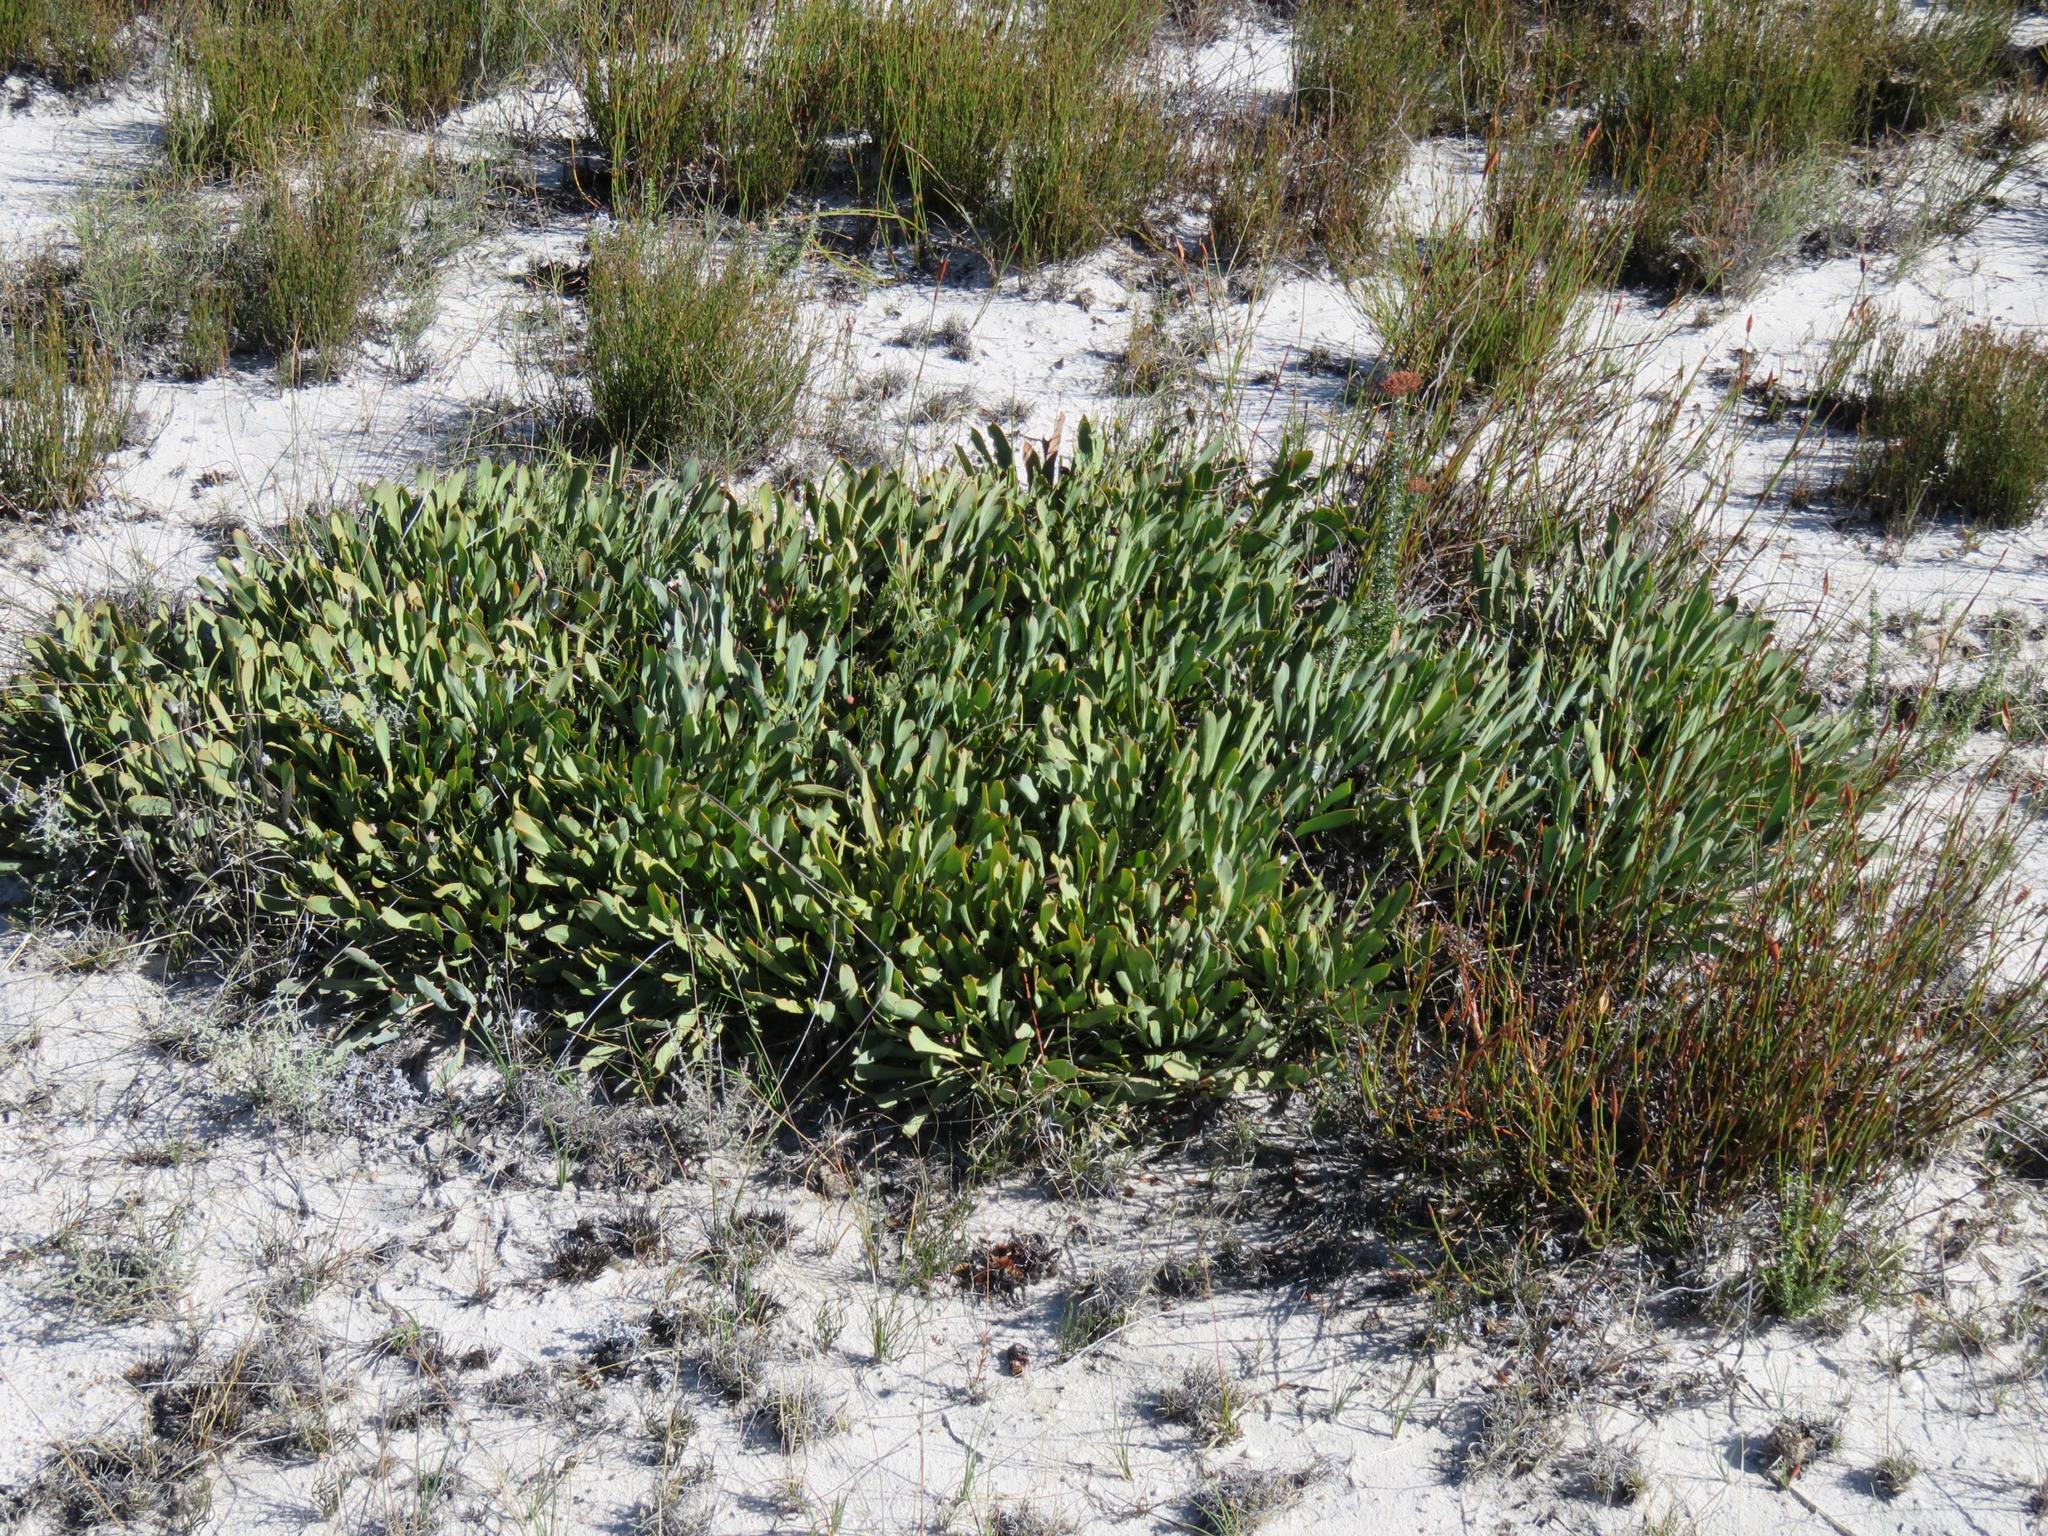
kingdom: Plantae
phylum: Tracheophyta
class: Magnoliopsida
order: Proteales
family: Proteaceae
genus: Protea
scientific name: Protea laevis
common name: Smooth-leaf sugarbush
